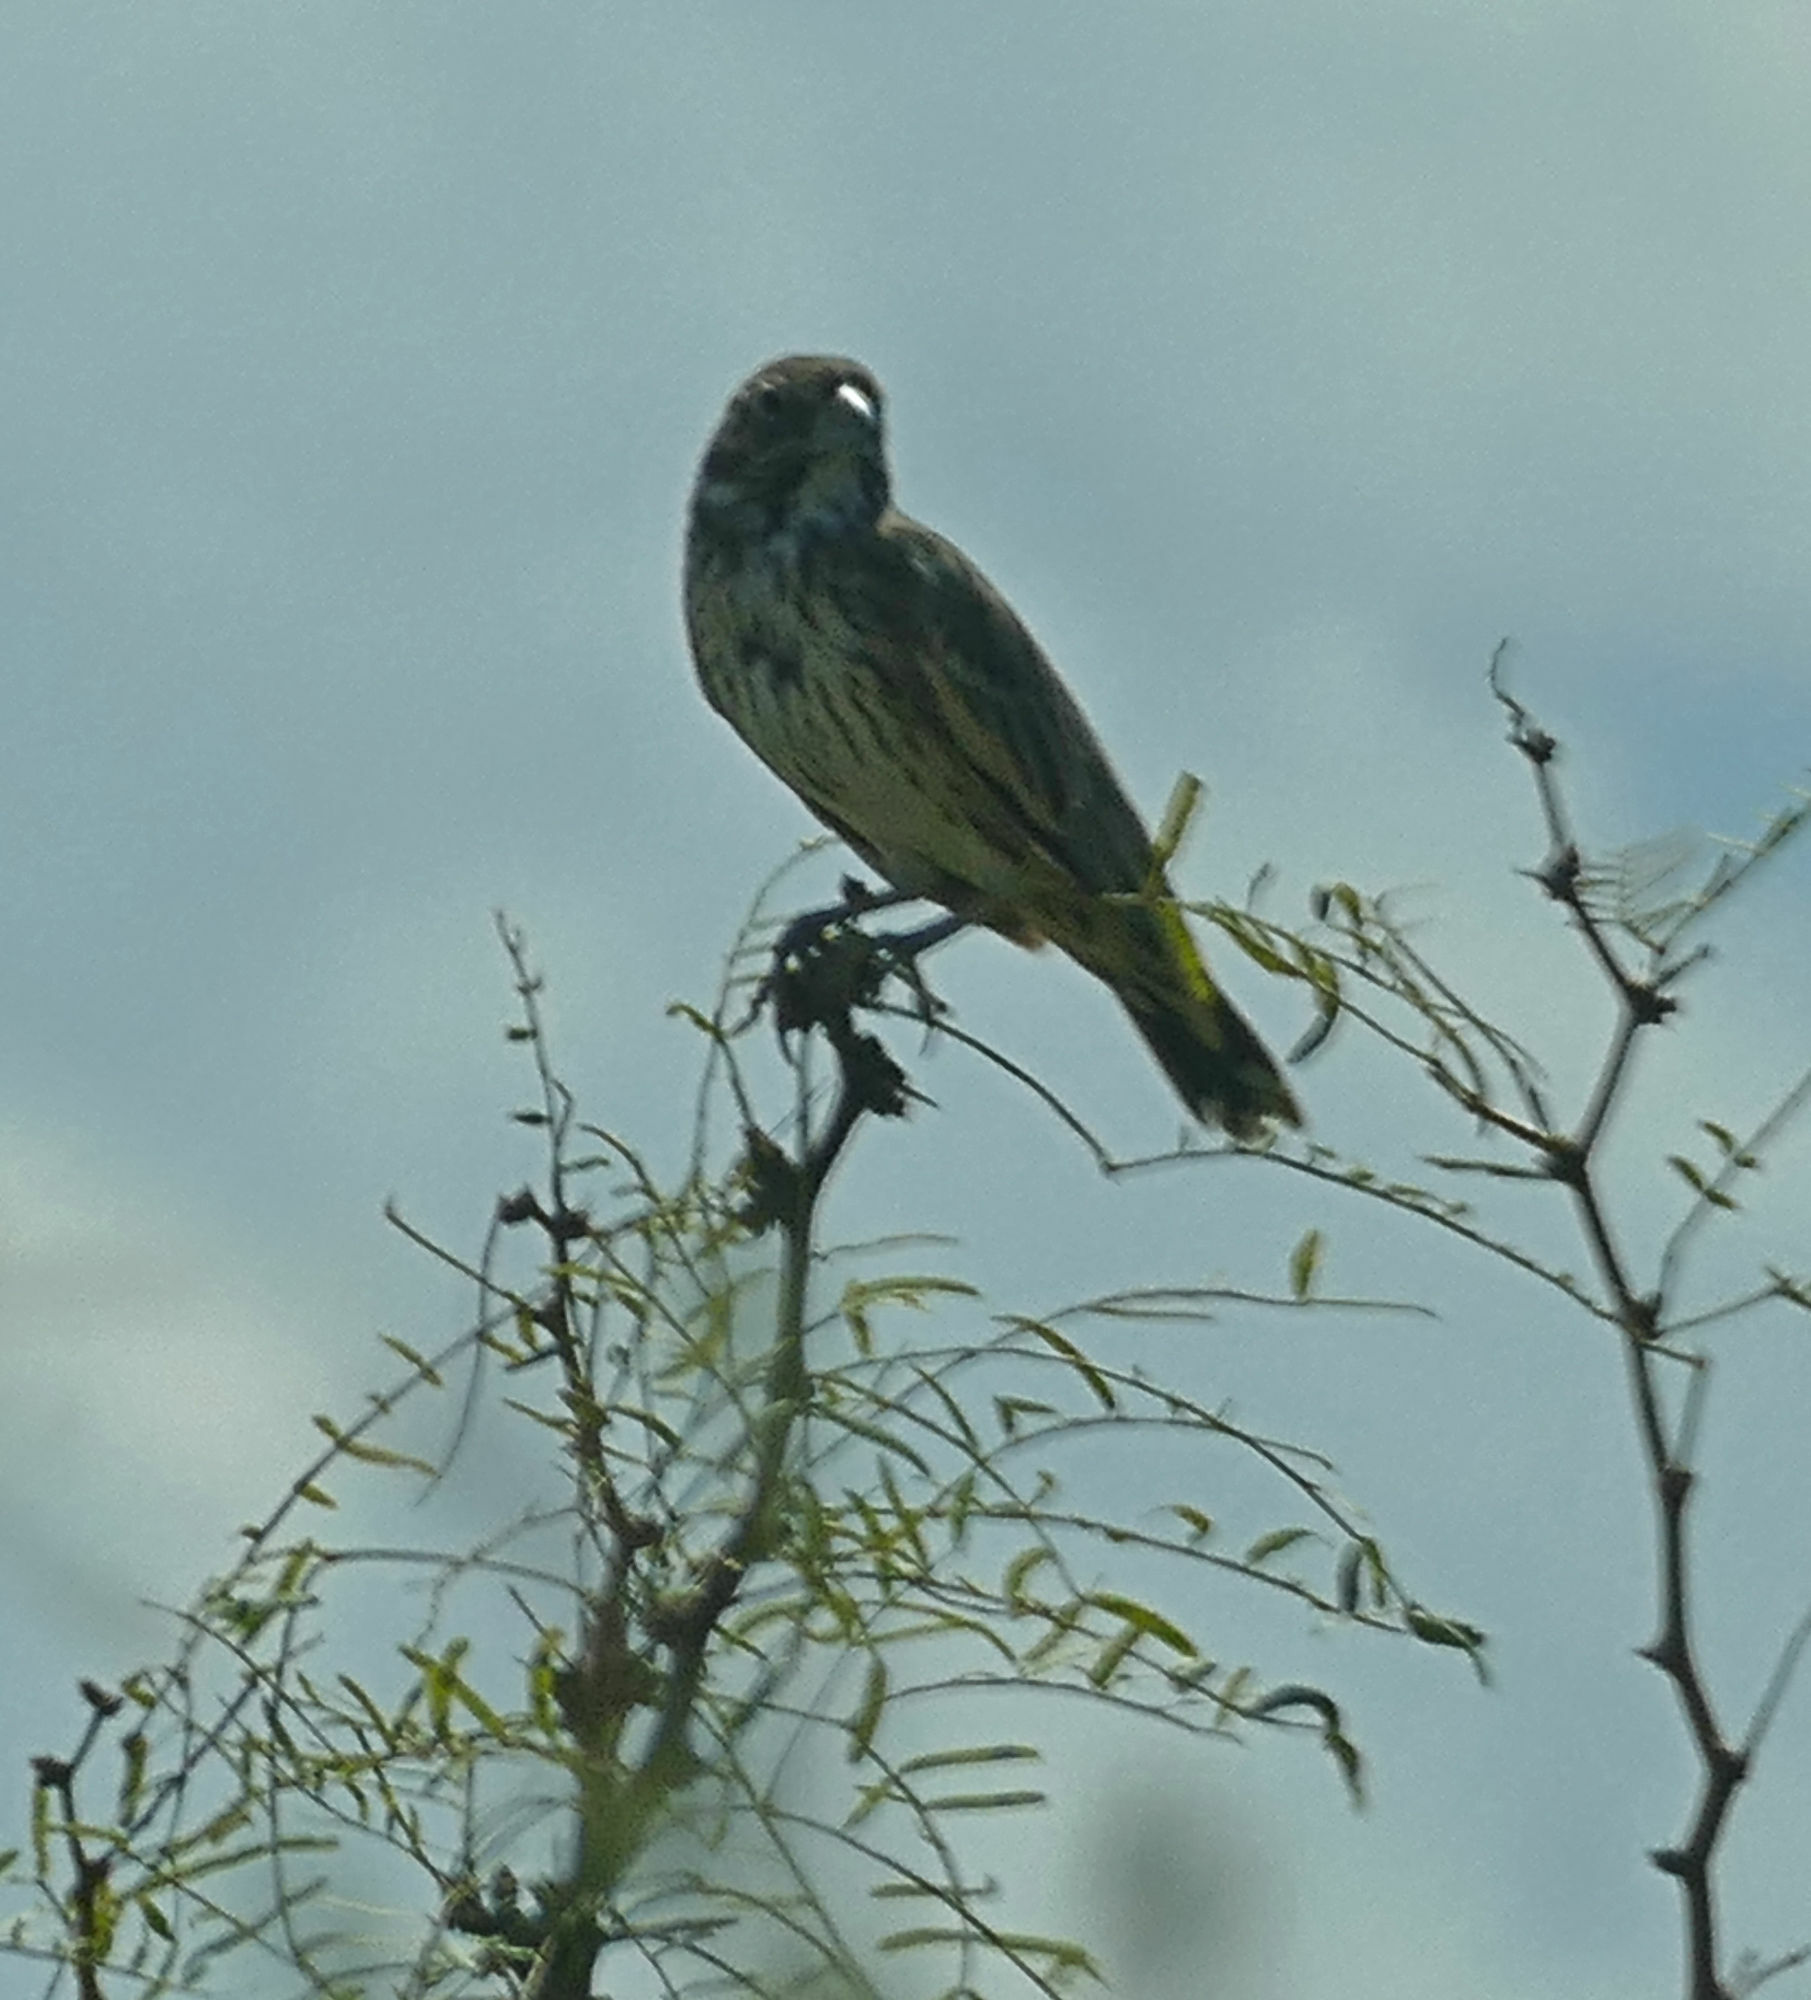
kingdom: Animalia
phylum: Chordata
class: Aves
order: Passeriformes
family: Passerellidae
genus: Calamospiza
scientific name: Calamospiza melanocorys
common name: Lark bunting
